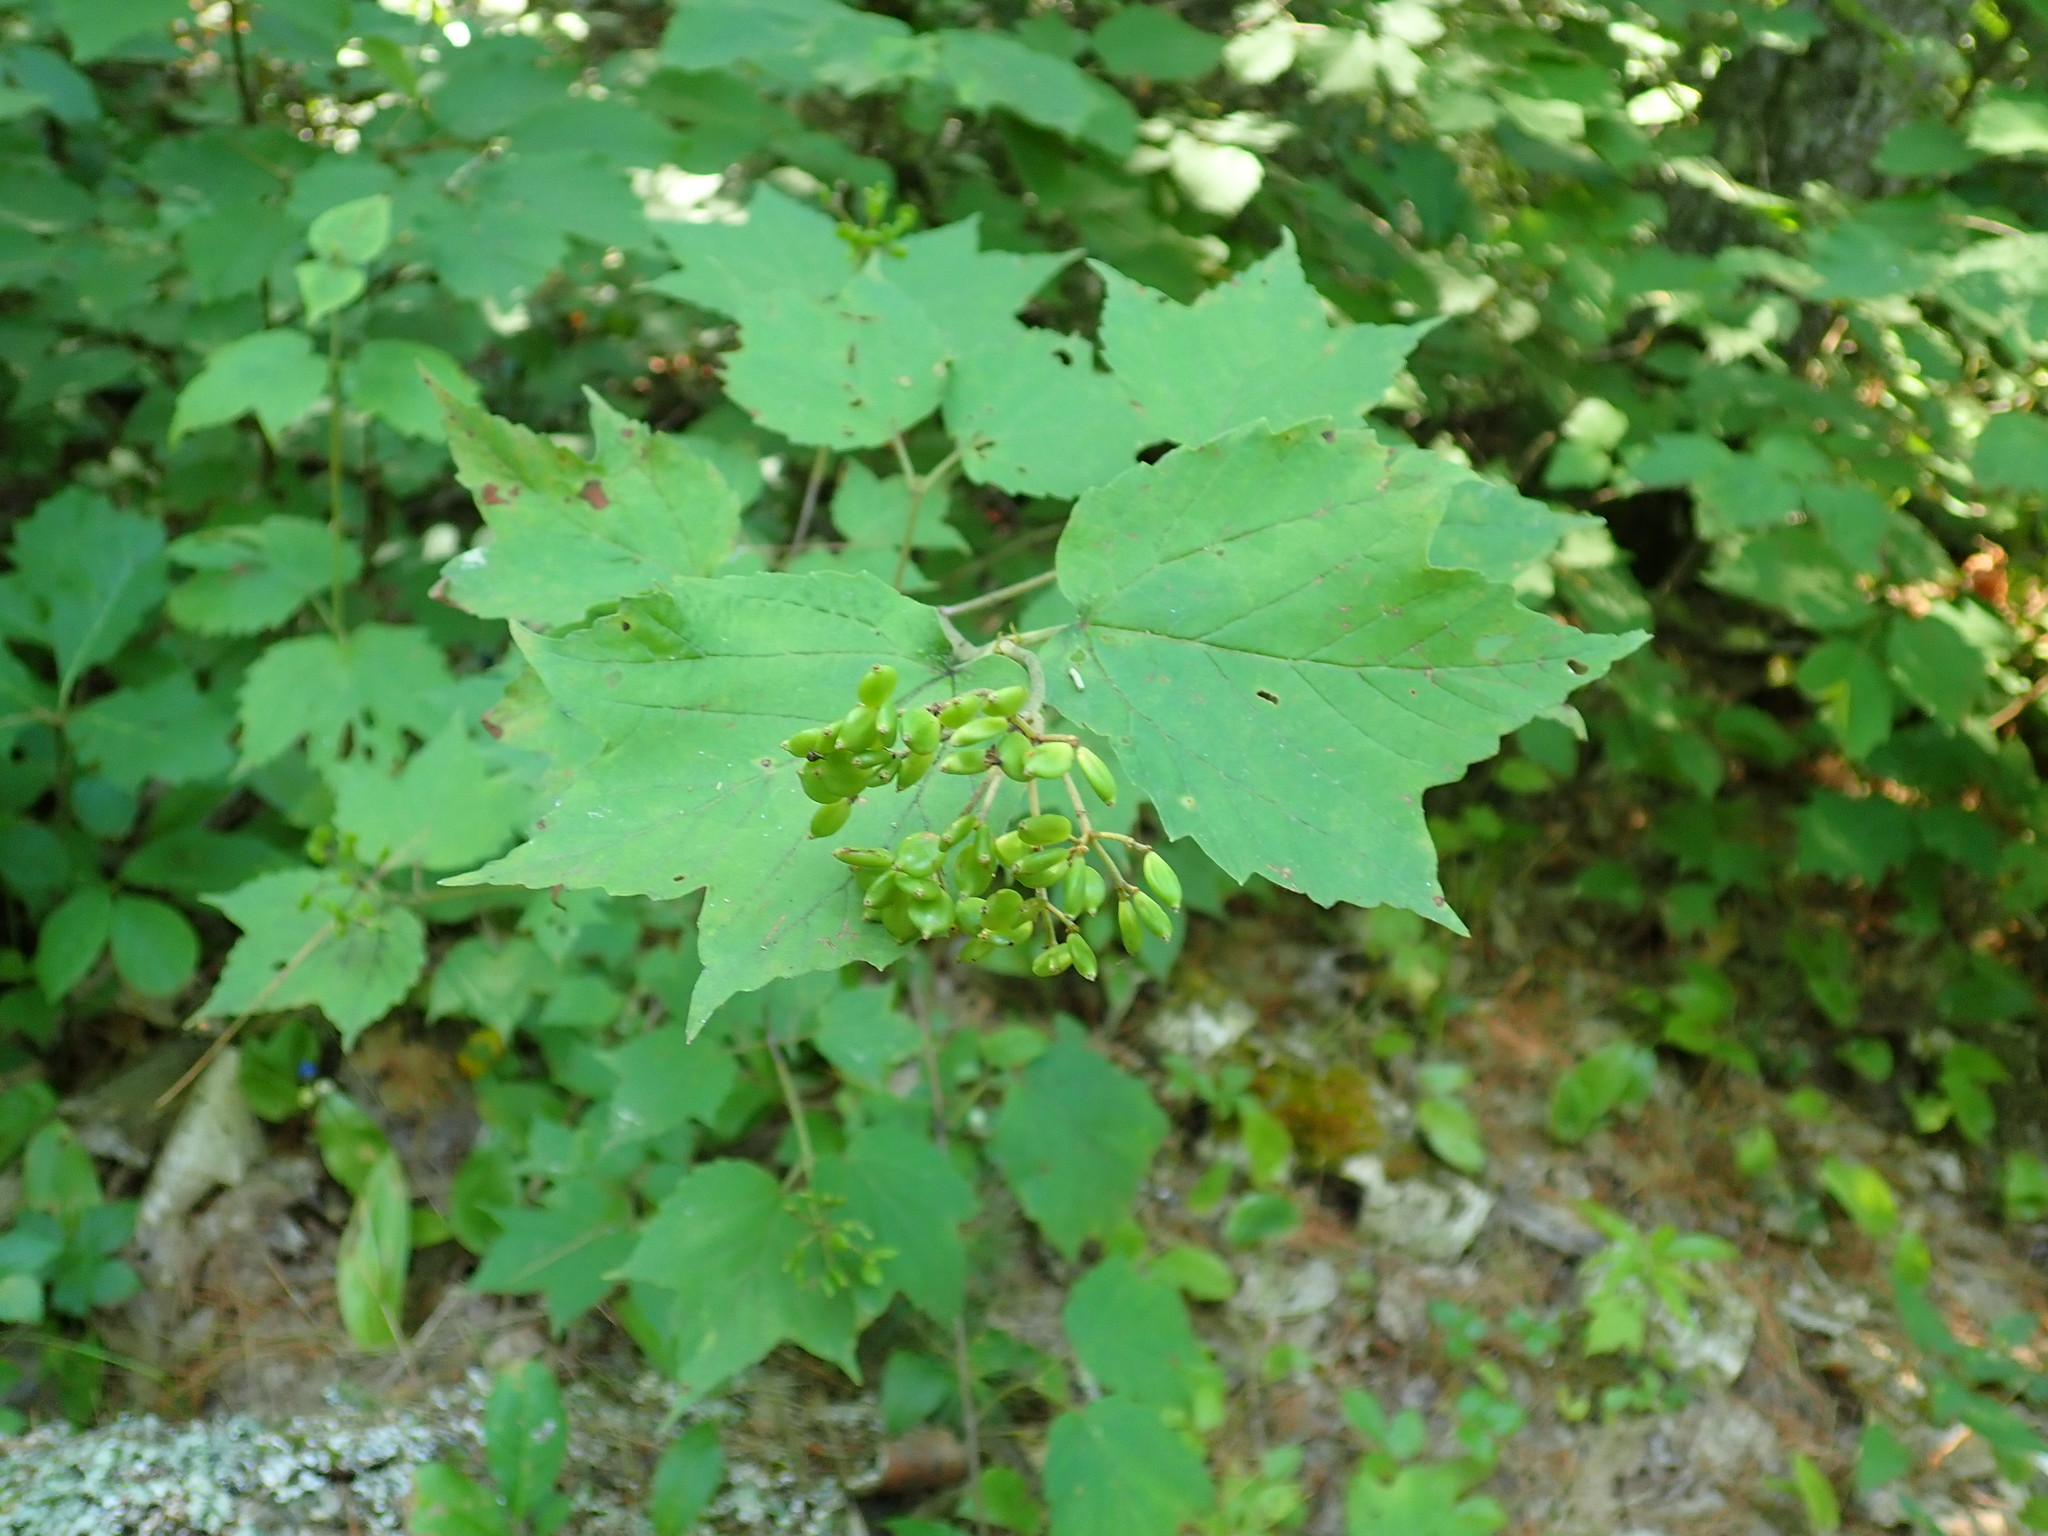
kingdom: Plantae
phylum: Tracheophyta
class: Magnoliopsida
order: Dipsacales
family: Viburnaceae
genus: Viburnum
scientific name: Viburnum acerifolium
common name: Dockmackie
